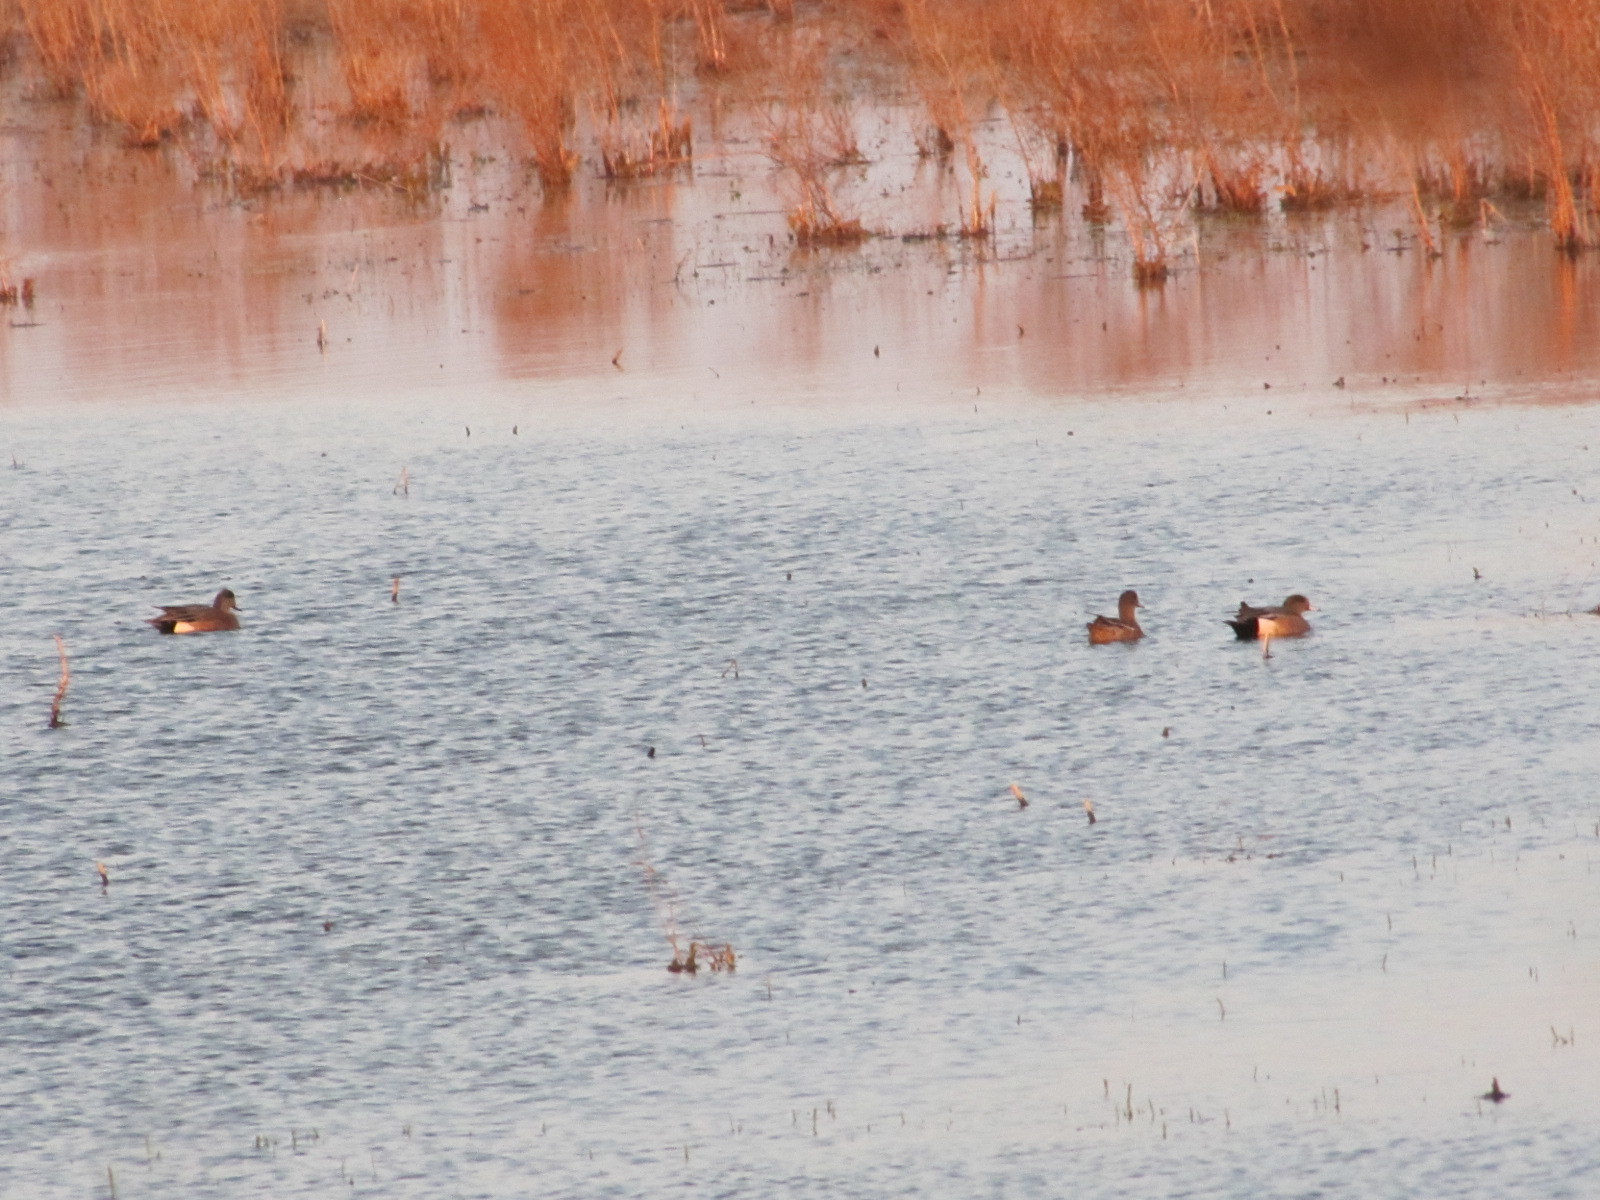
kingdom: Animalia
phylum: Chordata
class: Aves
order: Anseriformes
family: Anatidae
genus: Mareca
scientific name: Mareca americana
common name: American wigeon
